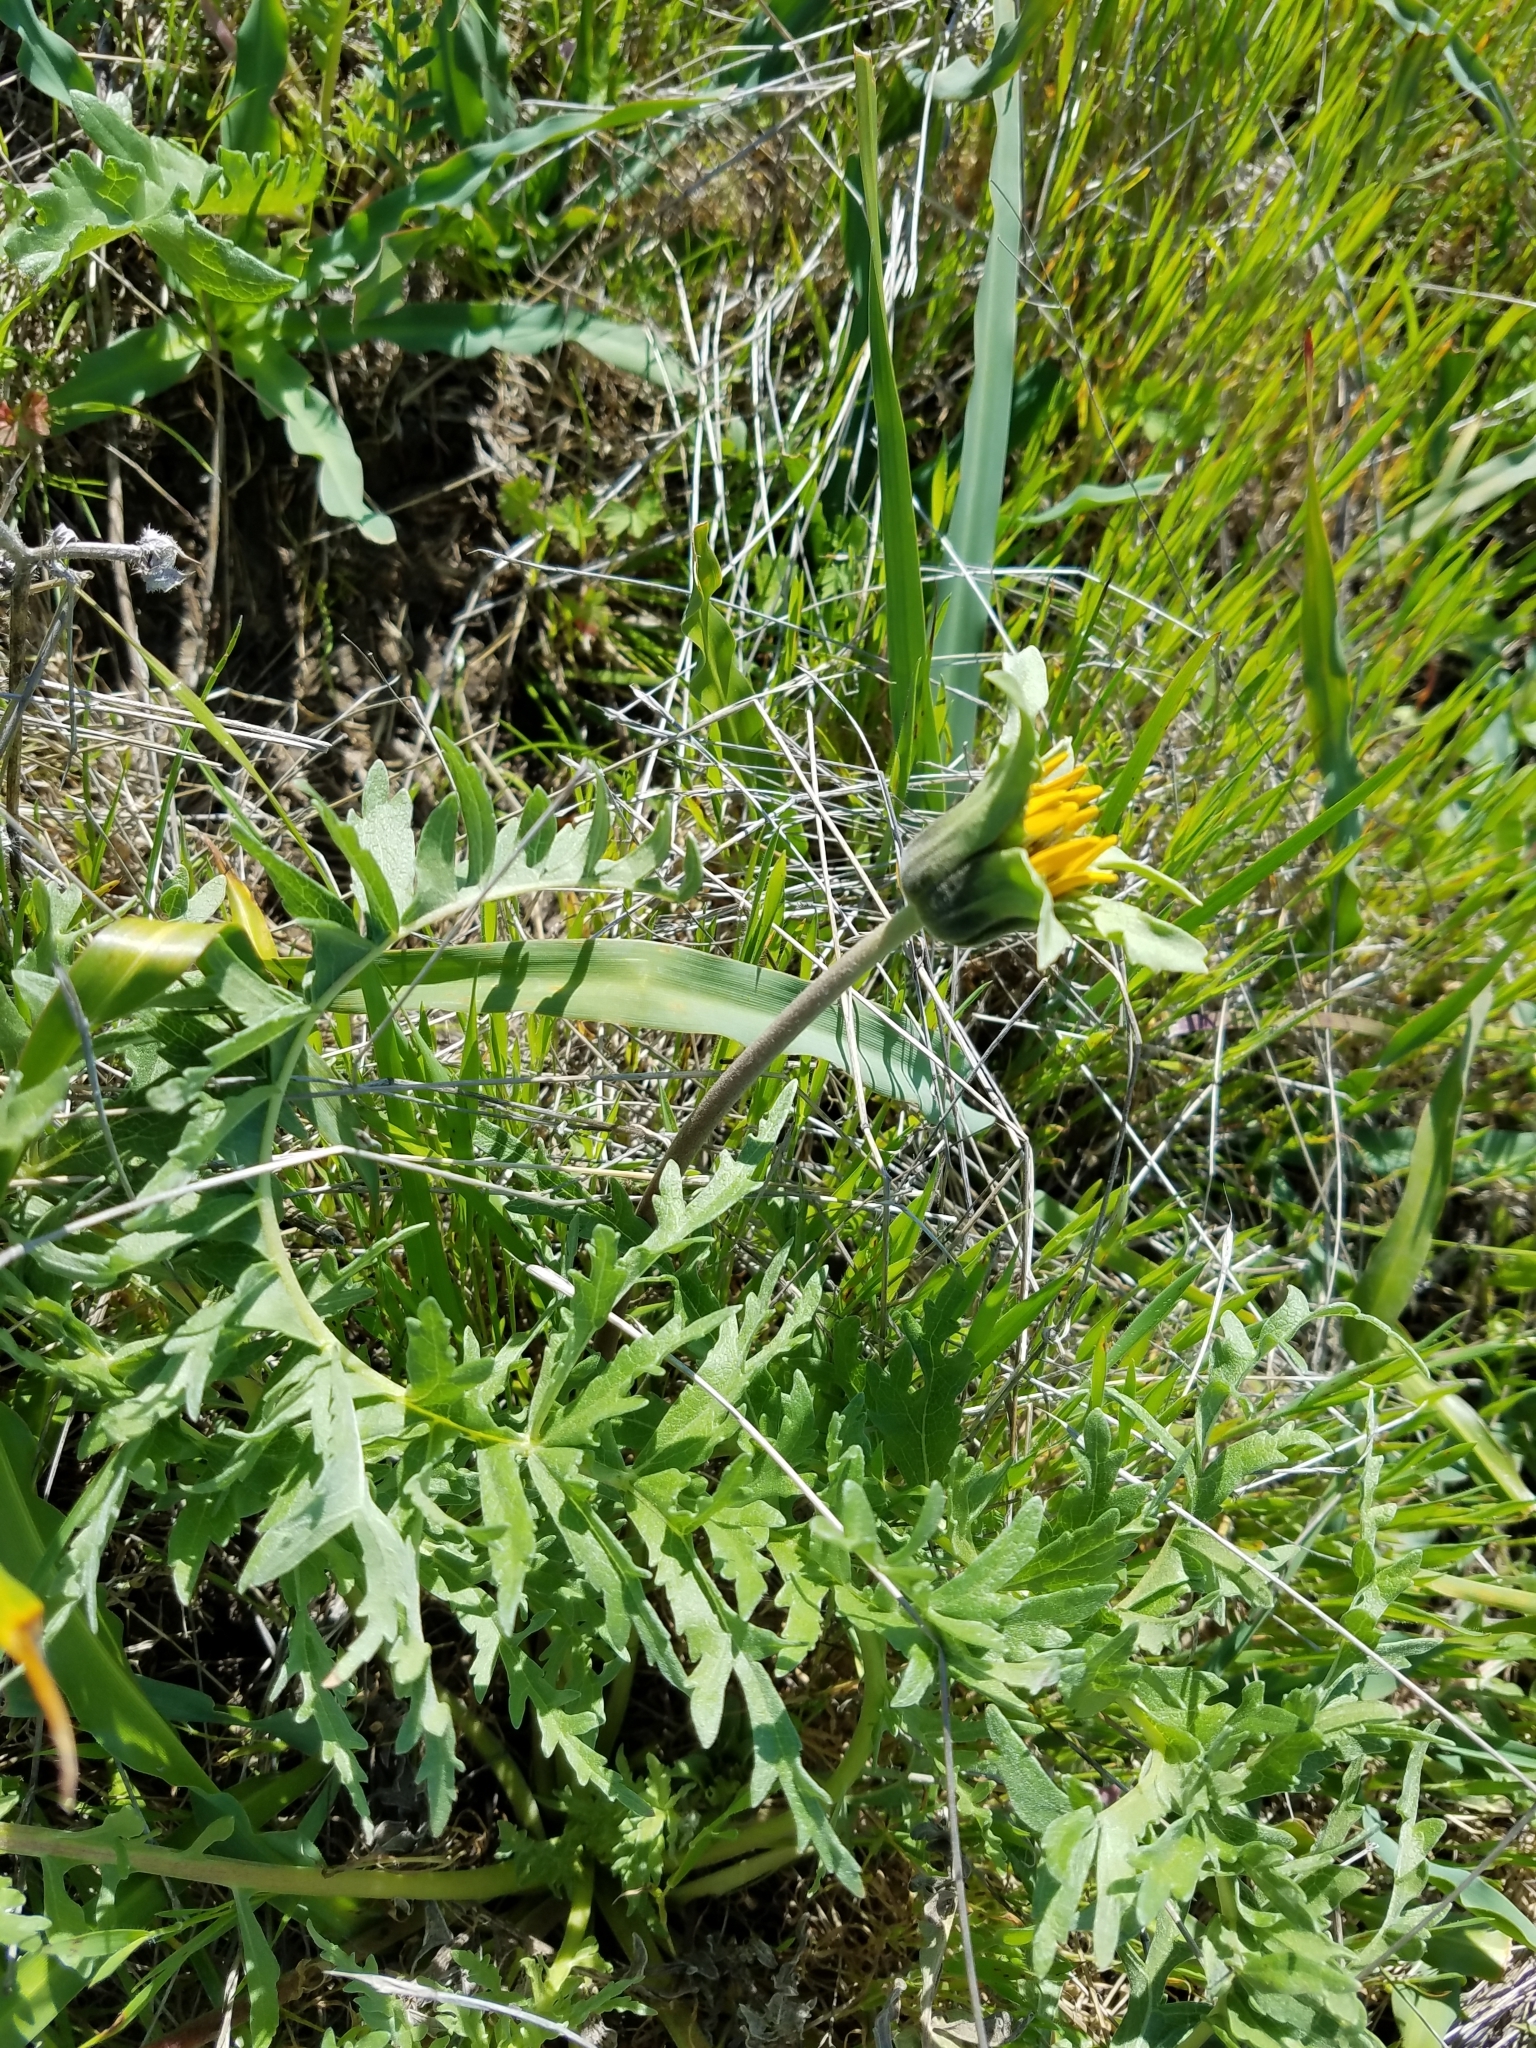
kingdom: Plantae
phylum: Tracheophyta
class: Magnoliopsida
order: Asterales
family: Asteraceae
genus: Balsamorhiza
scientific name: Balsamorhiza macrolepis
